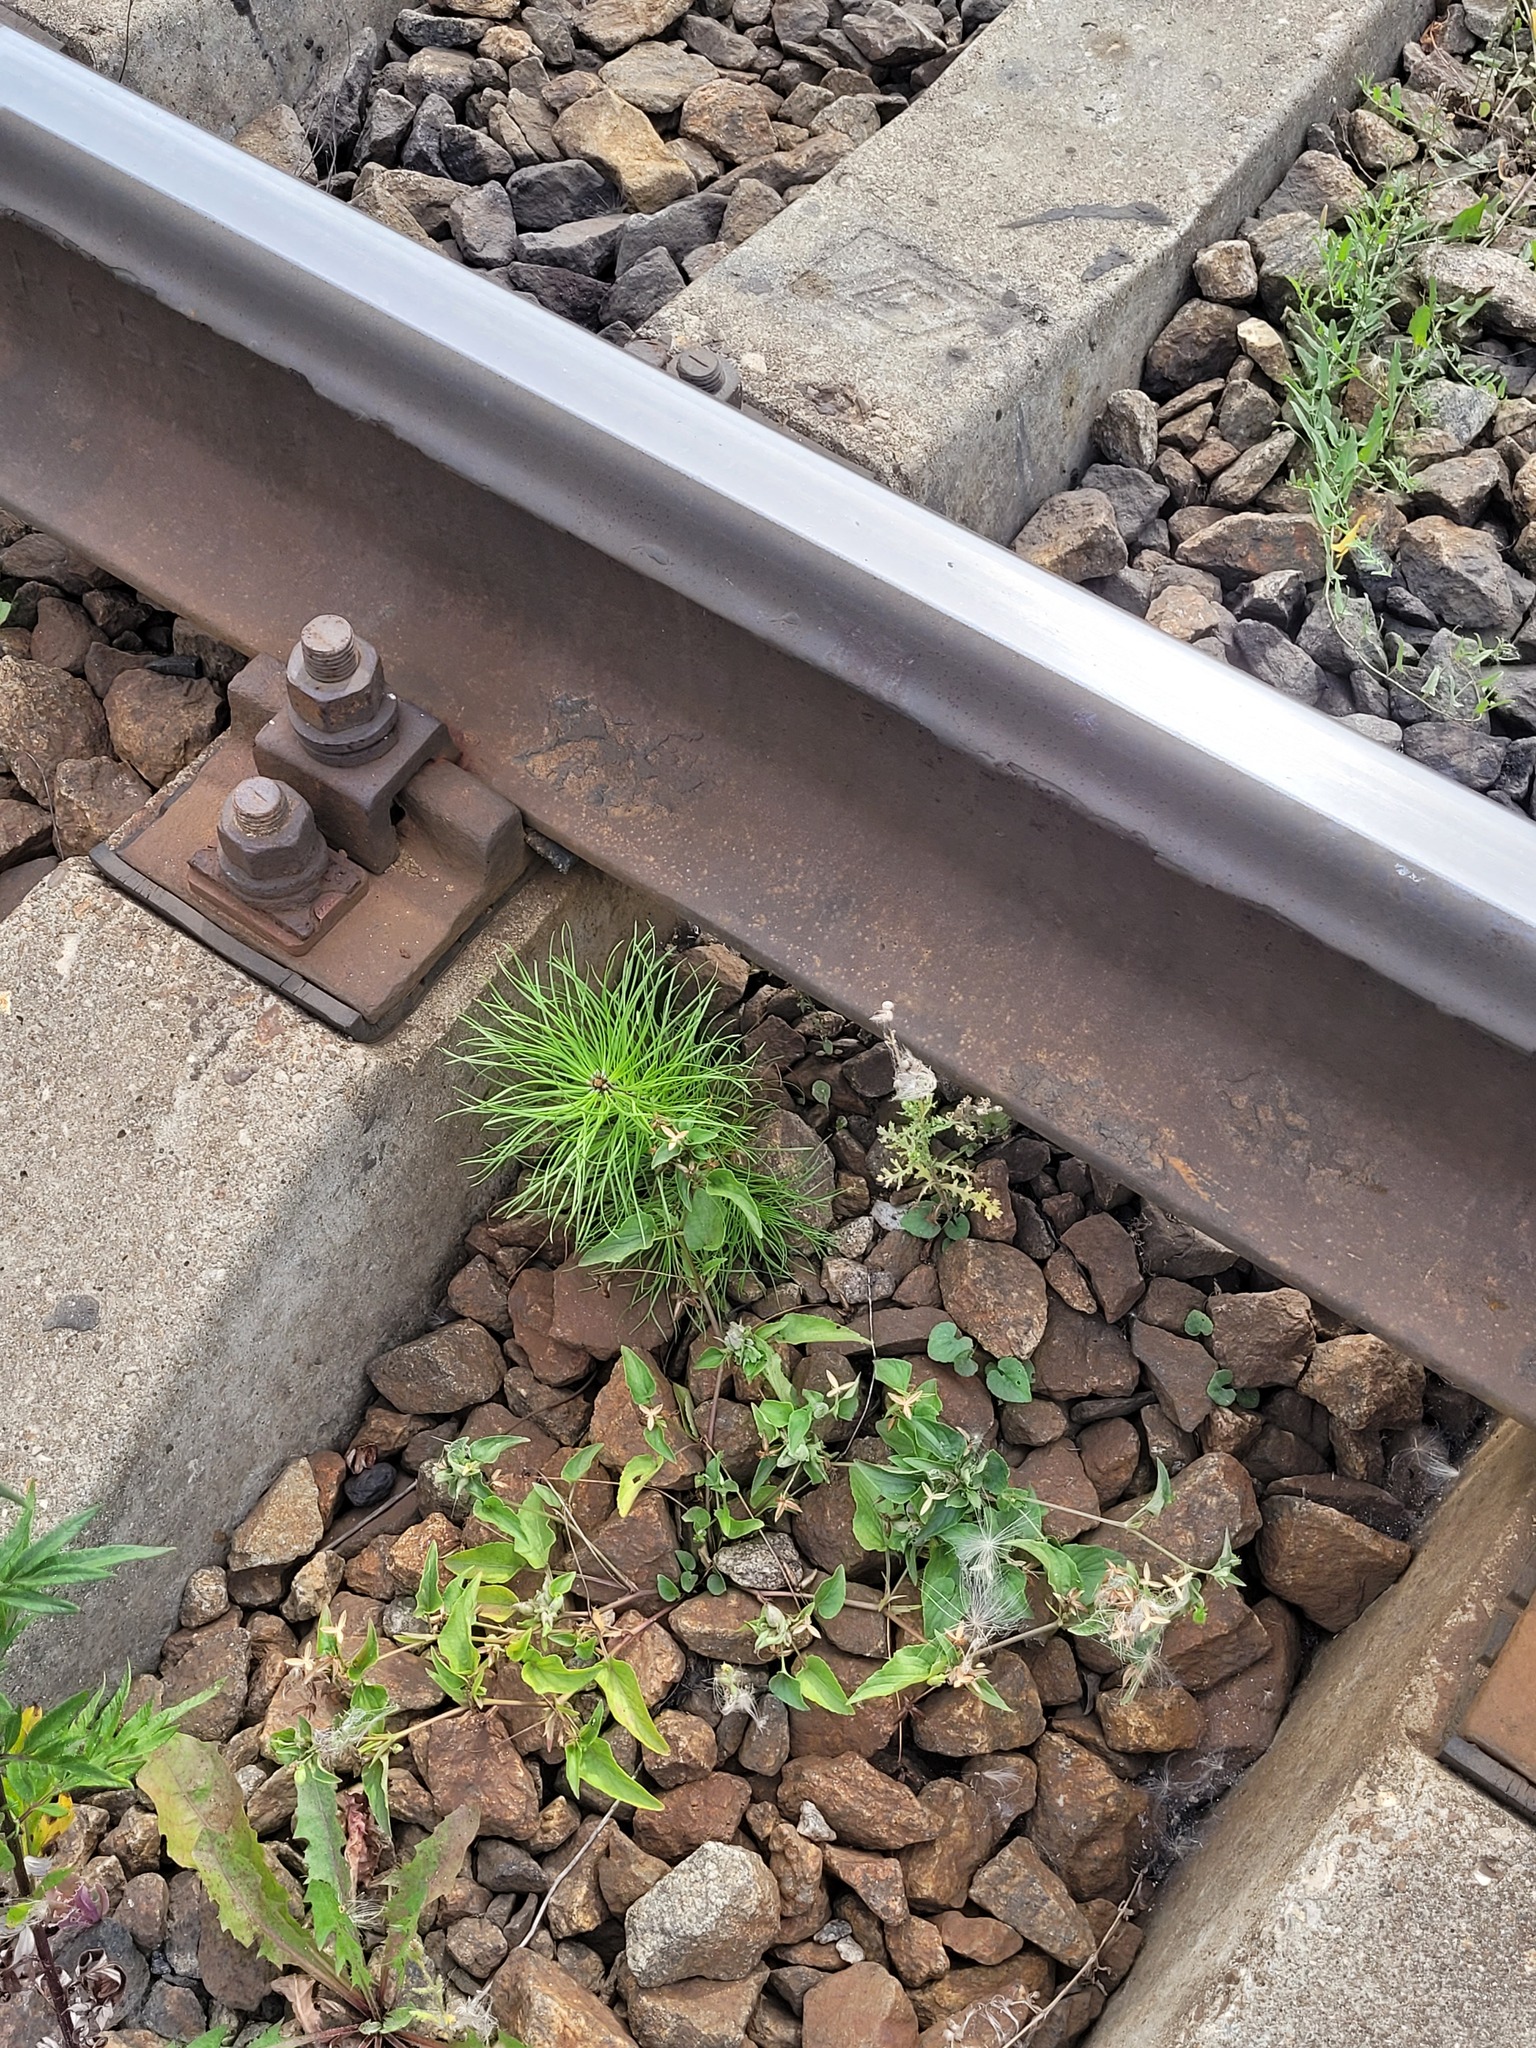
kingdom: Plantae
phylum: Tracheophyta
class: Pinopsida
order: Pinales
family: Pinaceae
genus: Pinus
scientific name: Pinus sylvestris
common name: Scots pine
